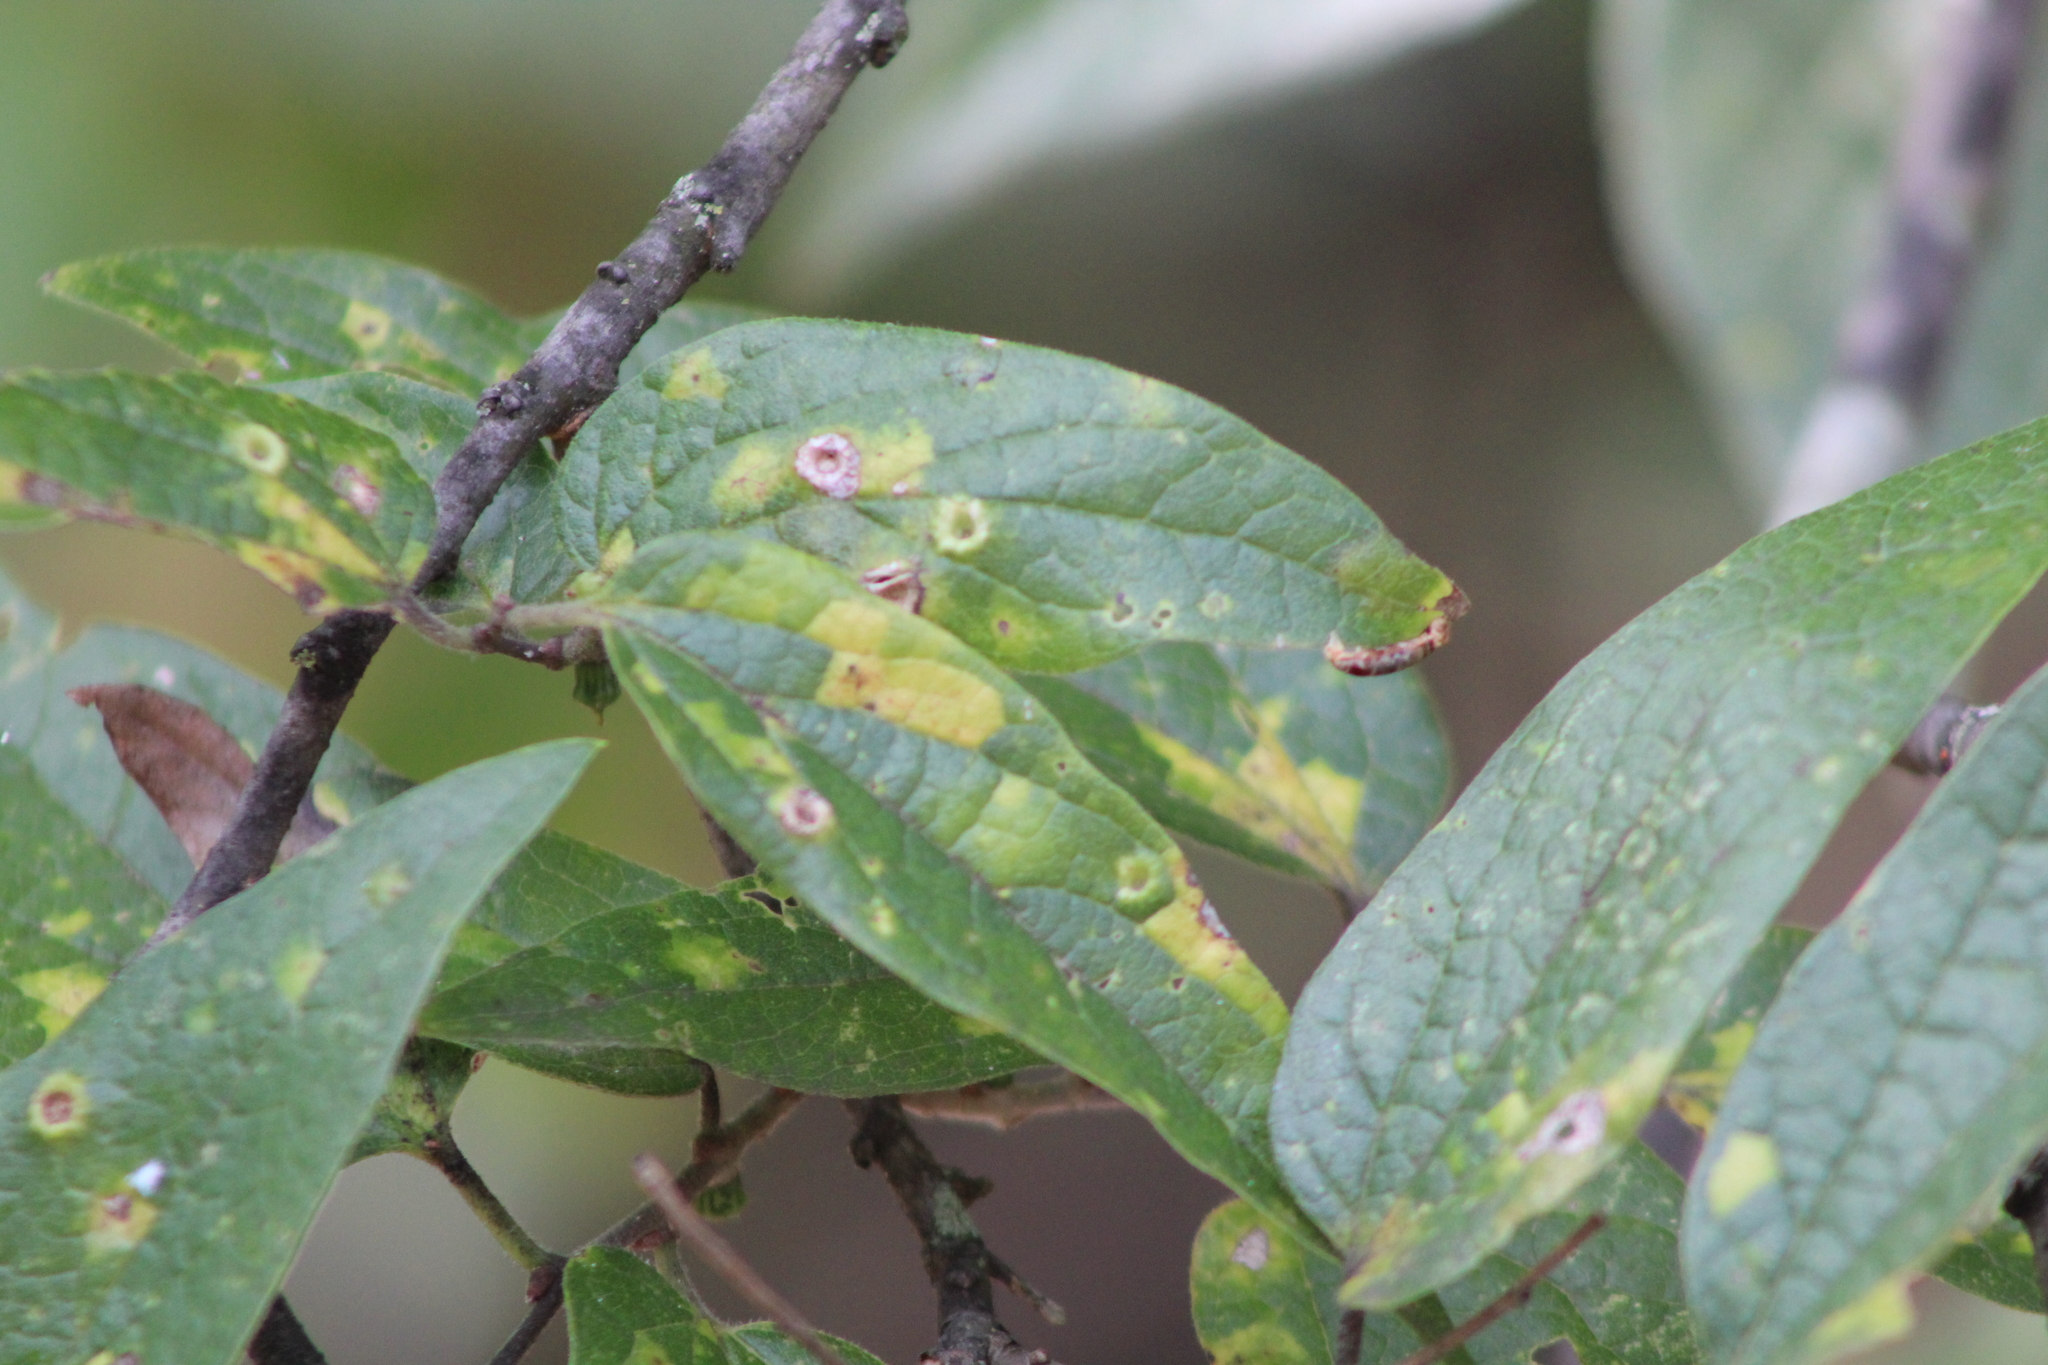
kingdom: Animalia
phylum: Arthropoda
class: Insecta
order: Hemiptera
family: Aphalaridae
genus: Pachypsylla
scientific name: Pachypsylla celtidismamma
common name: Hackberry nipplegall psyllid
